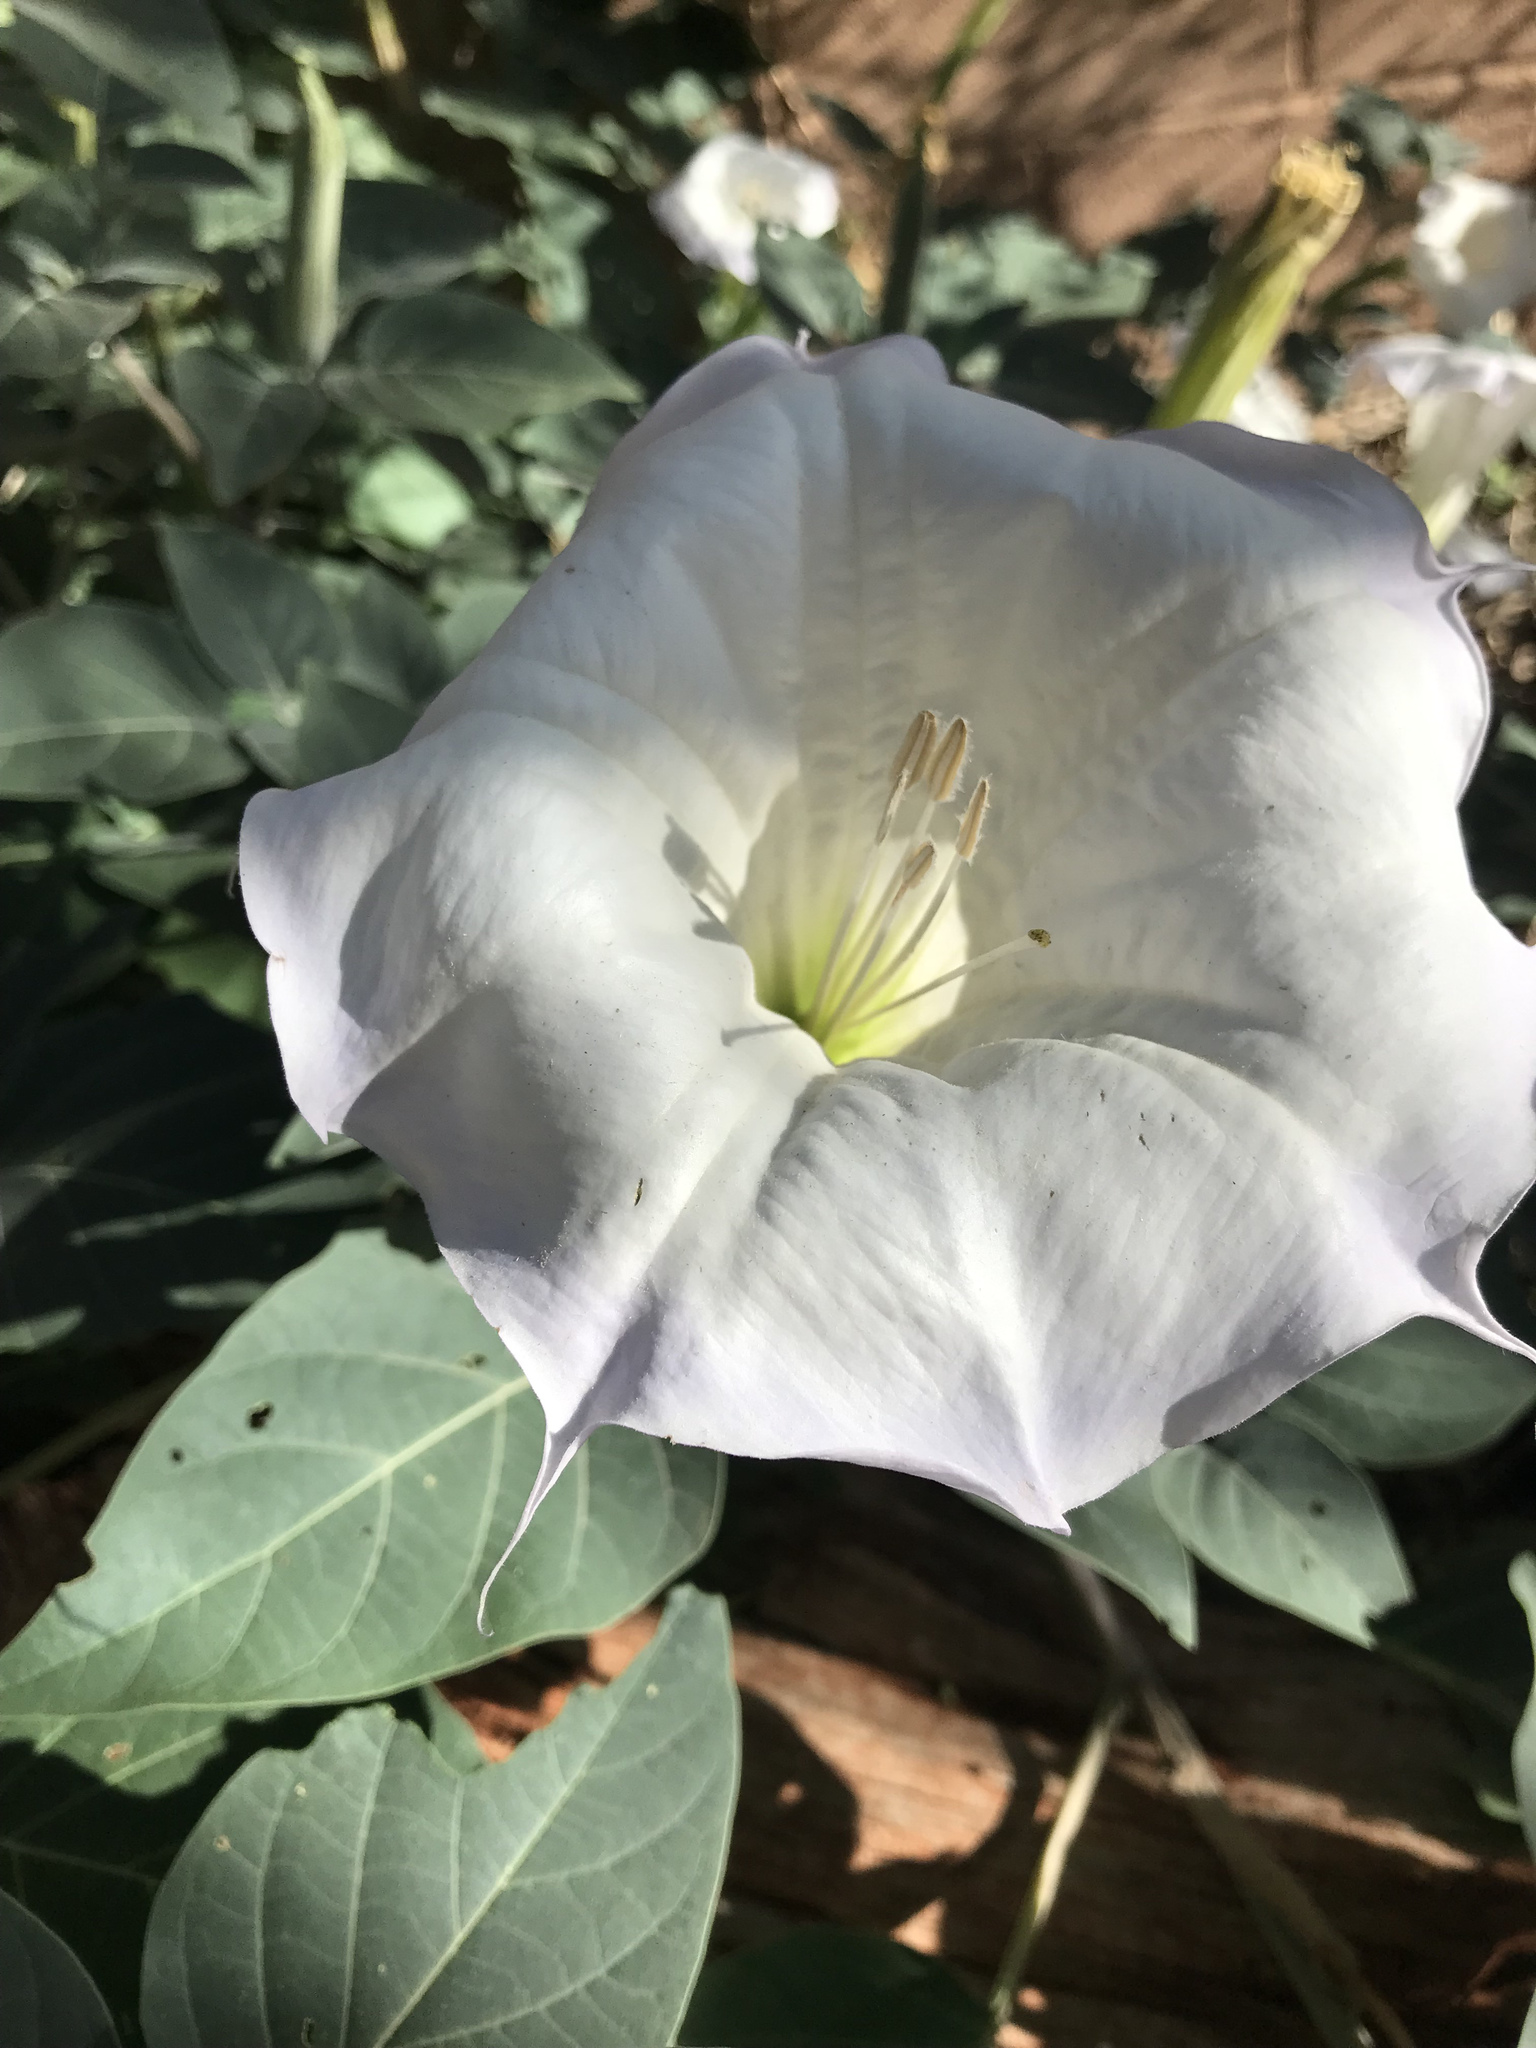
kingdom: Plantae
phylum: Tracheophyta
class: Magnoliopsida
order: Solanales
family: Solanaceae
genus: Datura
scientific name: Datura wrightii
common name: Sacred thorn-apple
